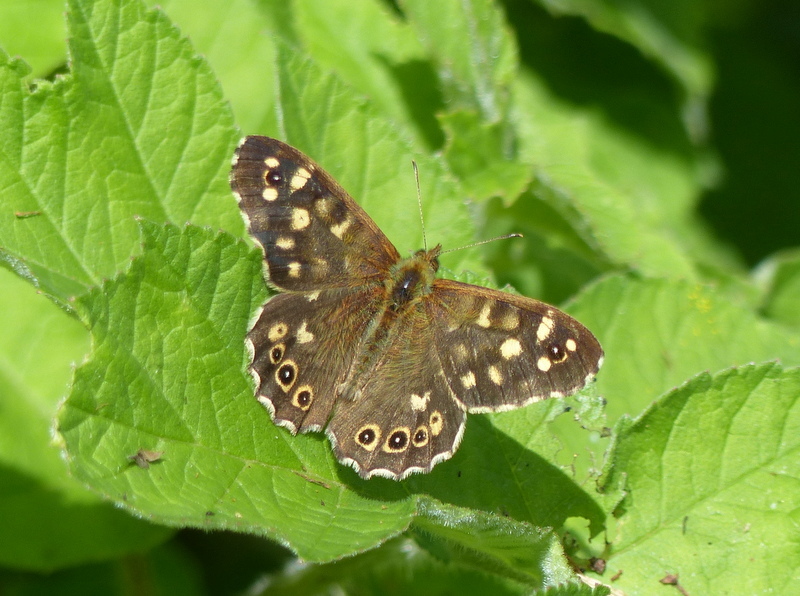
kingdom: Animalia
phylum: Arthropoda
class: Insecta
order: Lepidoptera
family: Nymphalidae
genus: Pararge
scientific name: Pararge aegeria
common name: Speckled wood
